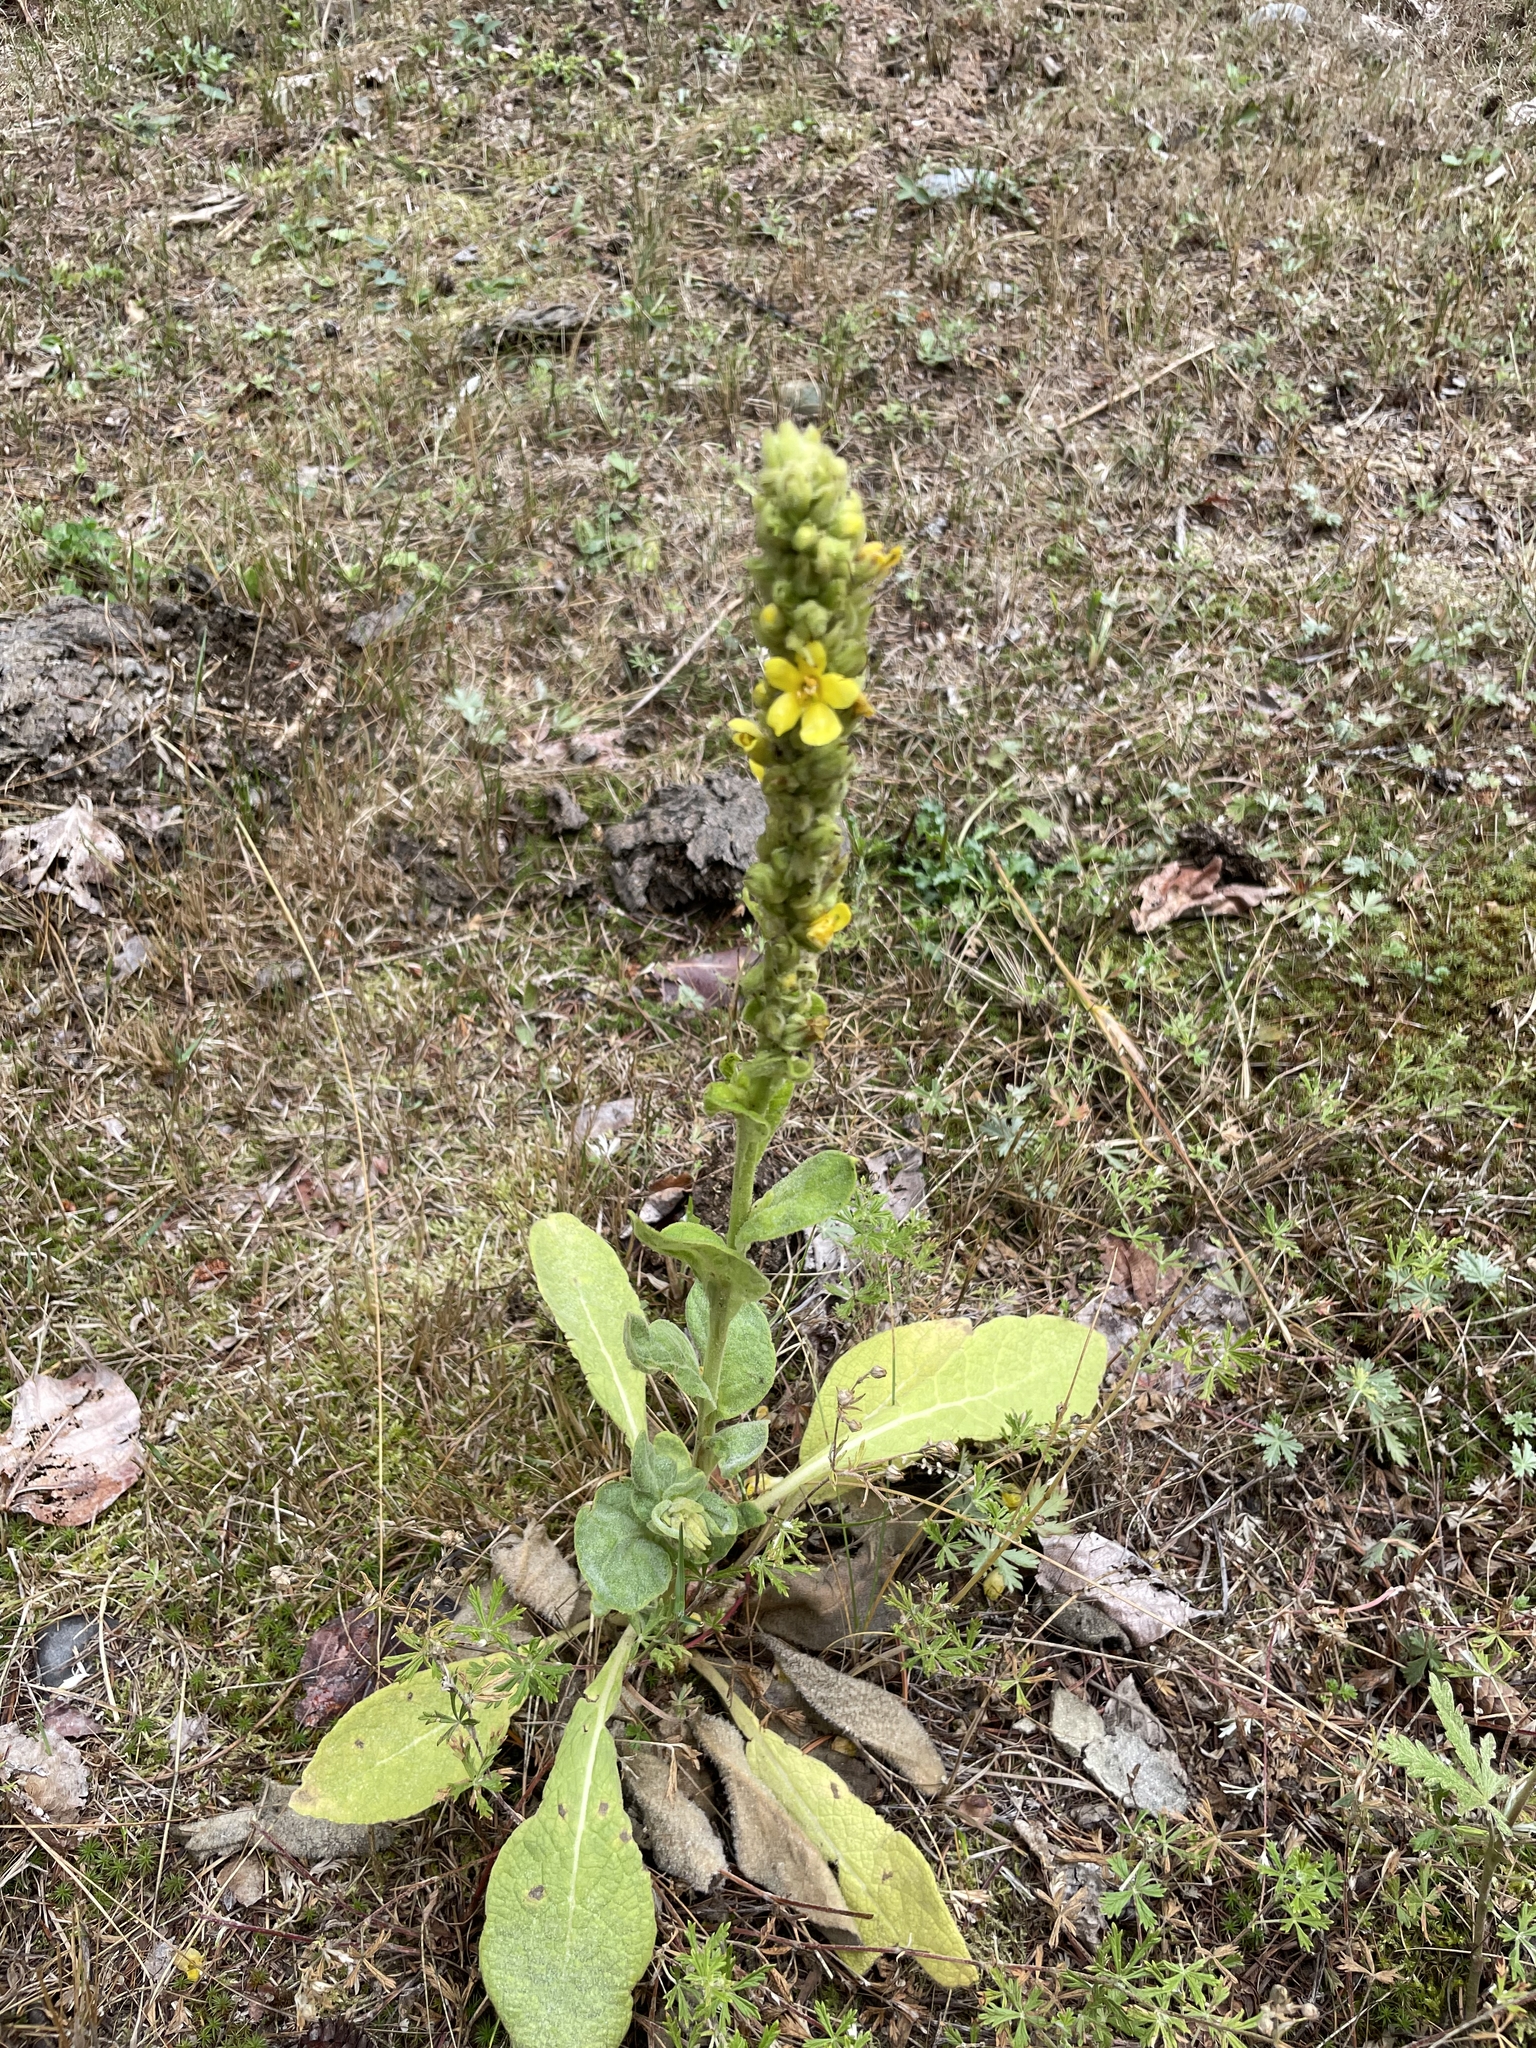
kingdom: Plantae
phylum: Tracheophyta
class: Magnoliopsida
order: Lamiales
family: Scrophulariaceae
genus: Verbascum
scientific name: Verbascum thapsus
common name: Common mullein
